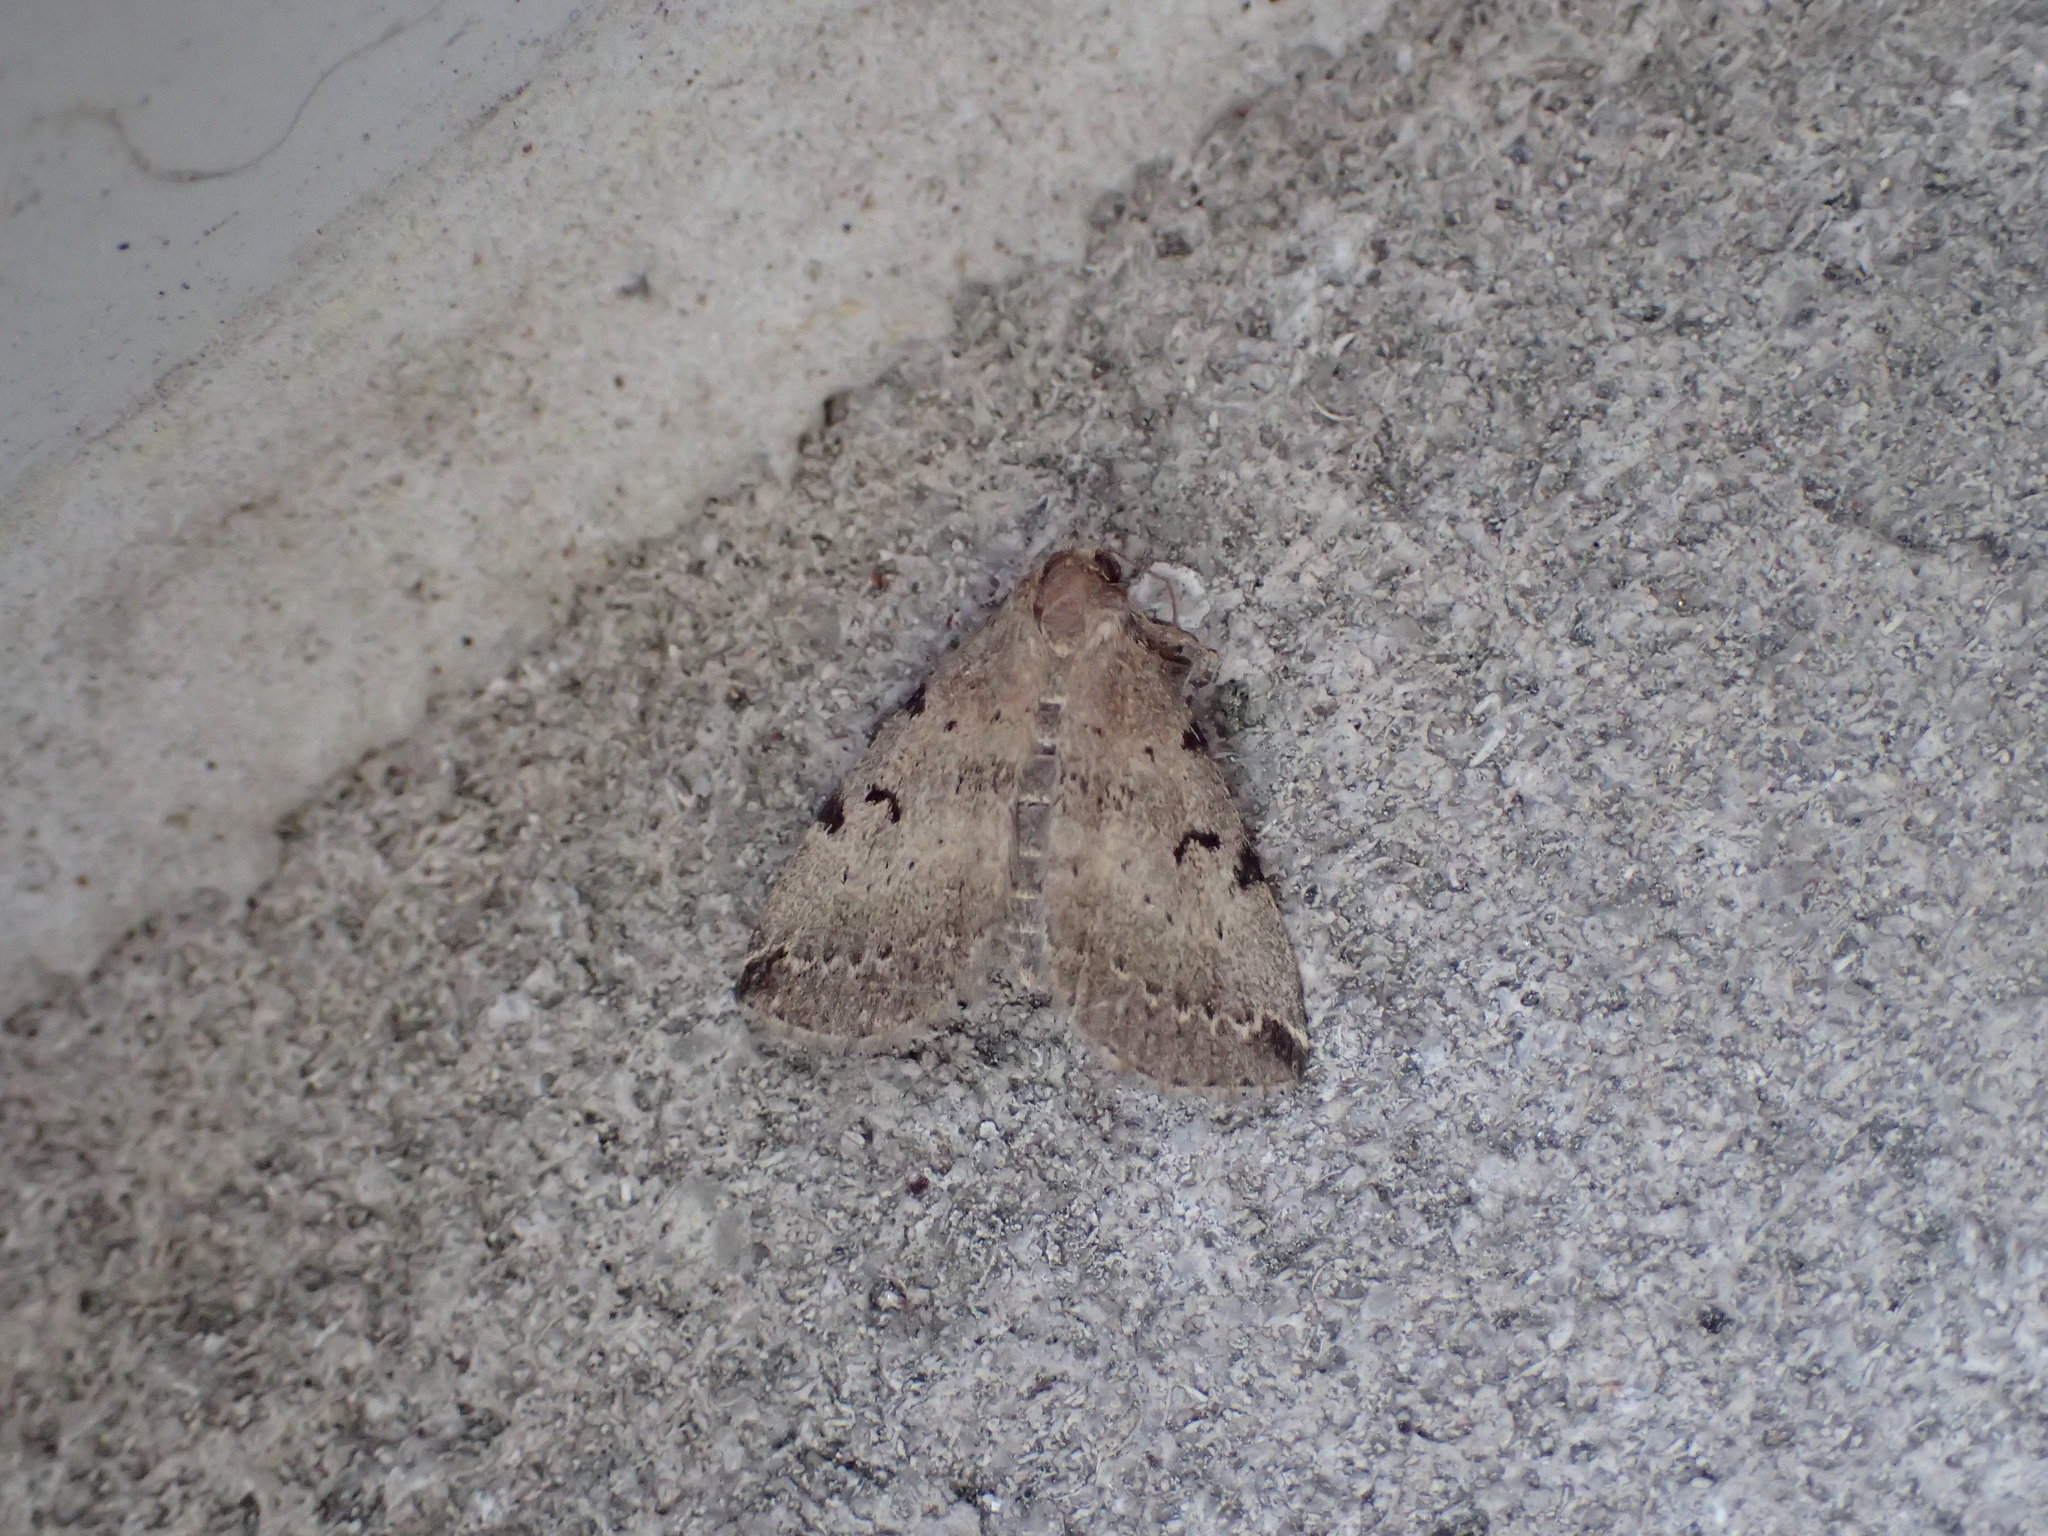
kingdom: Animalia
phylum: Arthropoda
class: Insecta
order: Lepidoptera
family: Erebidae
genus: Zanclognatha
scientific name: Zanclognatha lituralis
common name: Lettered fan-foot
